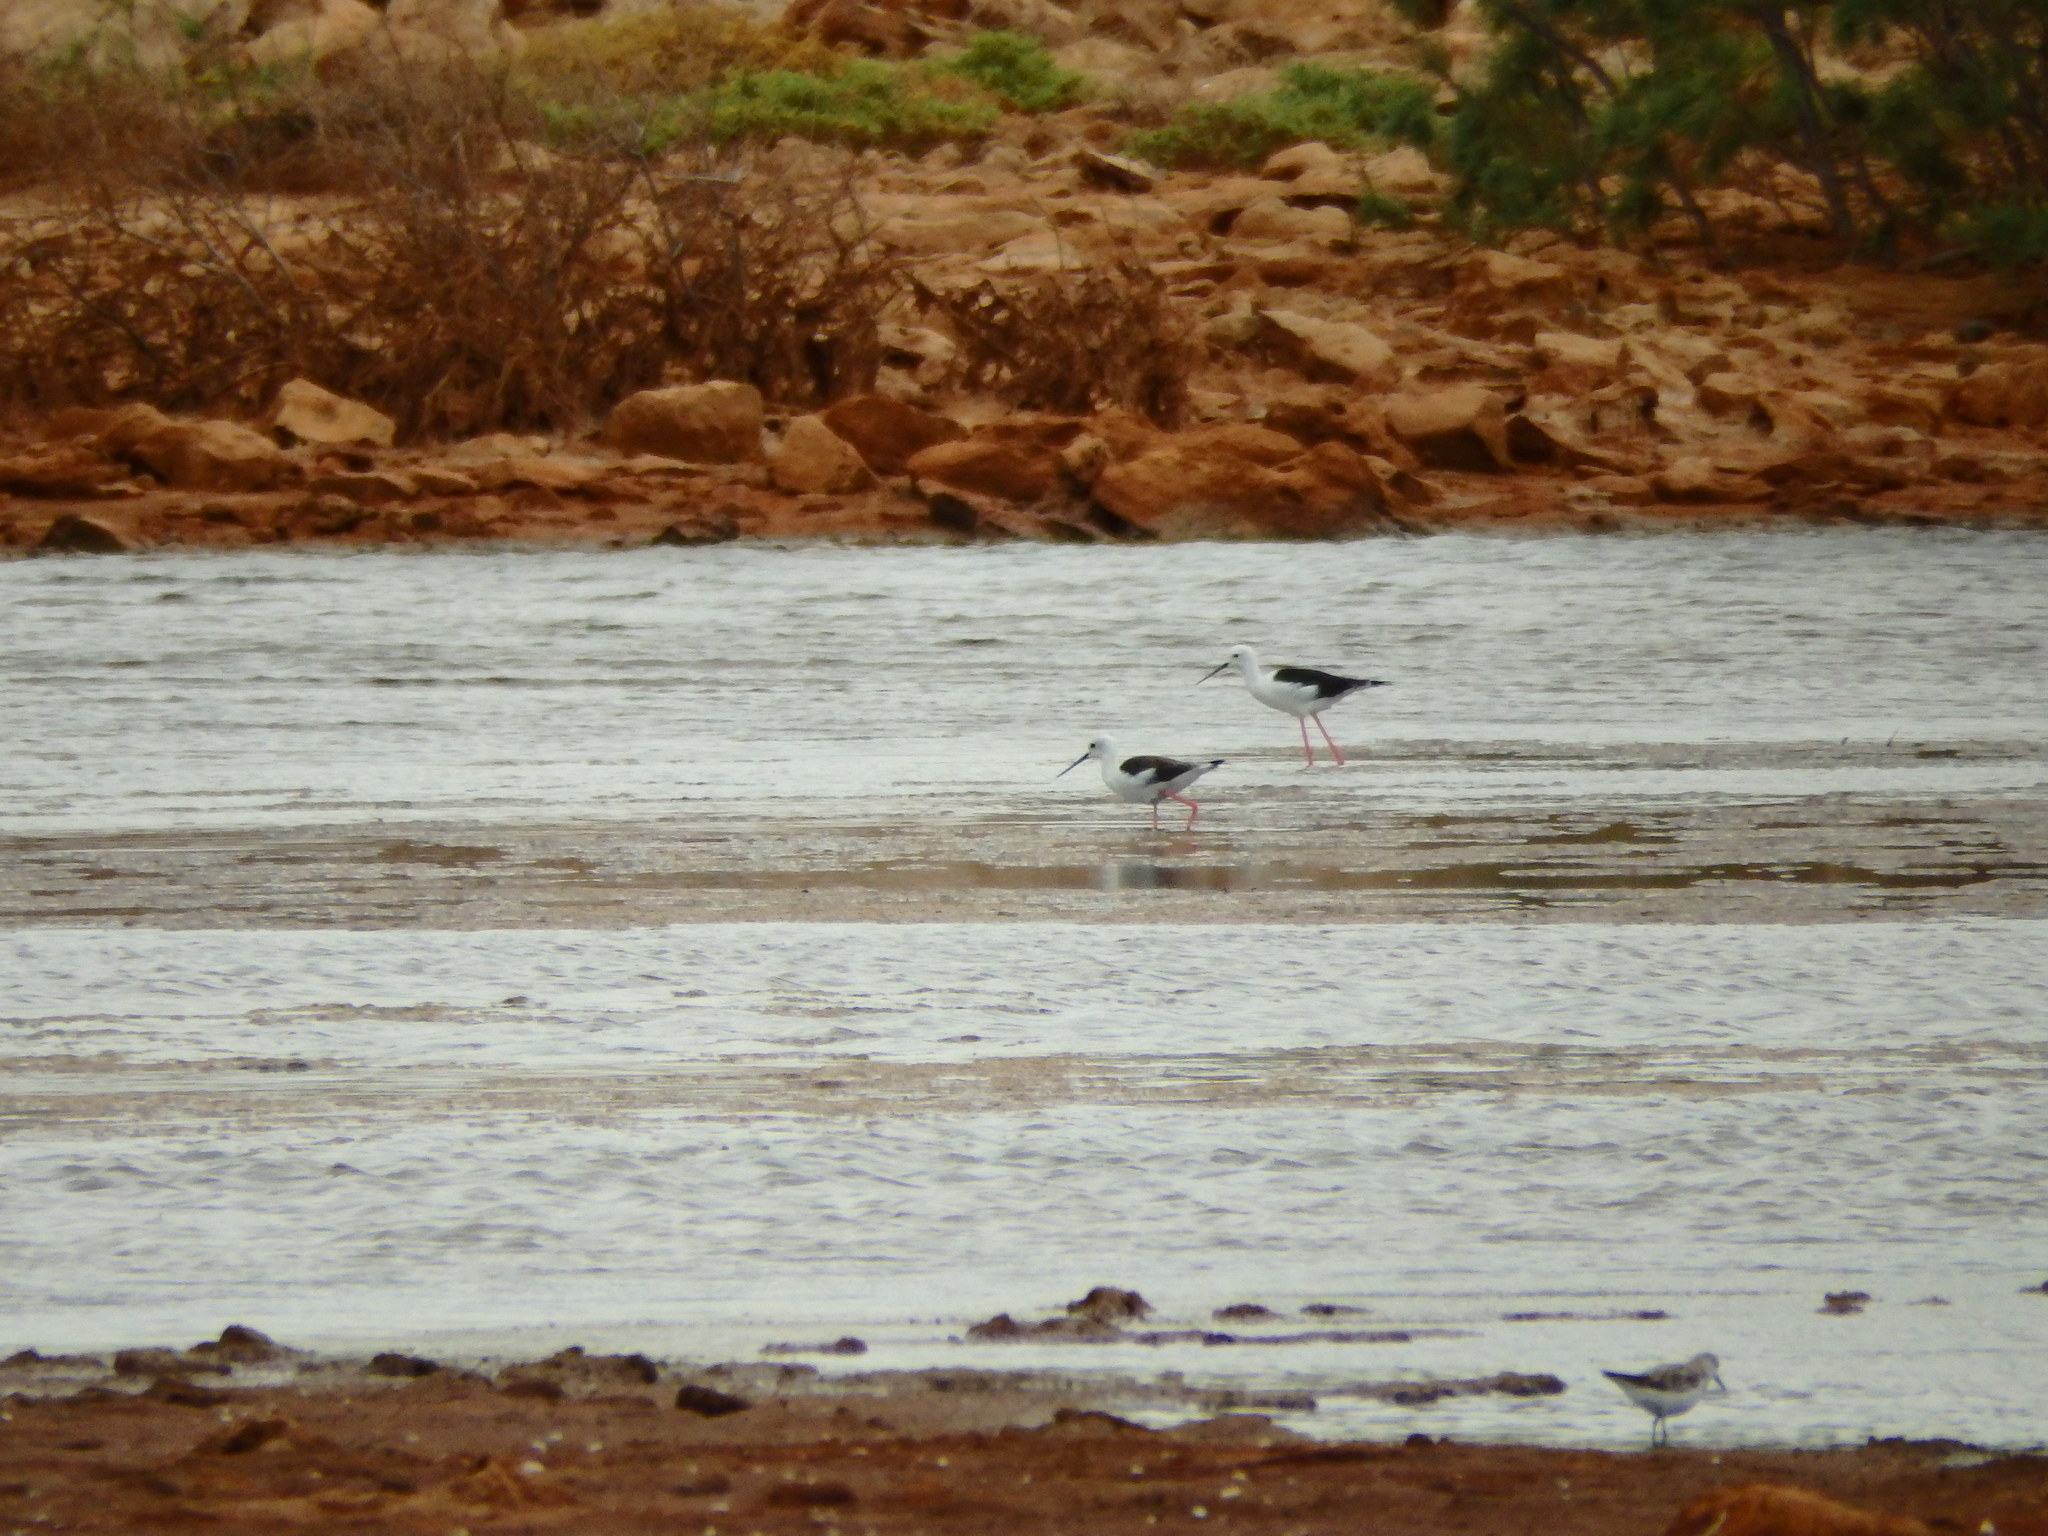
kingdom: Animalia
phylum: Chordata
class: Aves
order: Charadriiformes
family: Recurvirostridae
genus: Himantopus
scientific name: Himantopus himantopus
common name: Black-winged stilt
